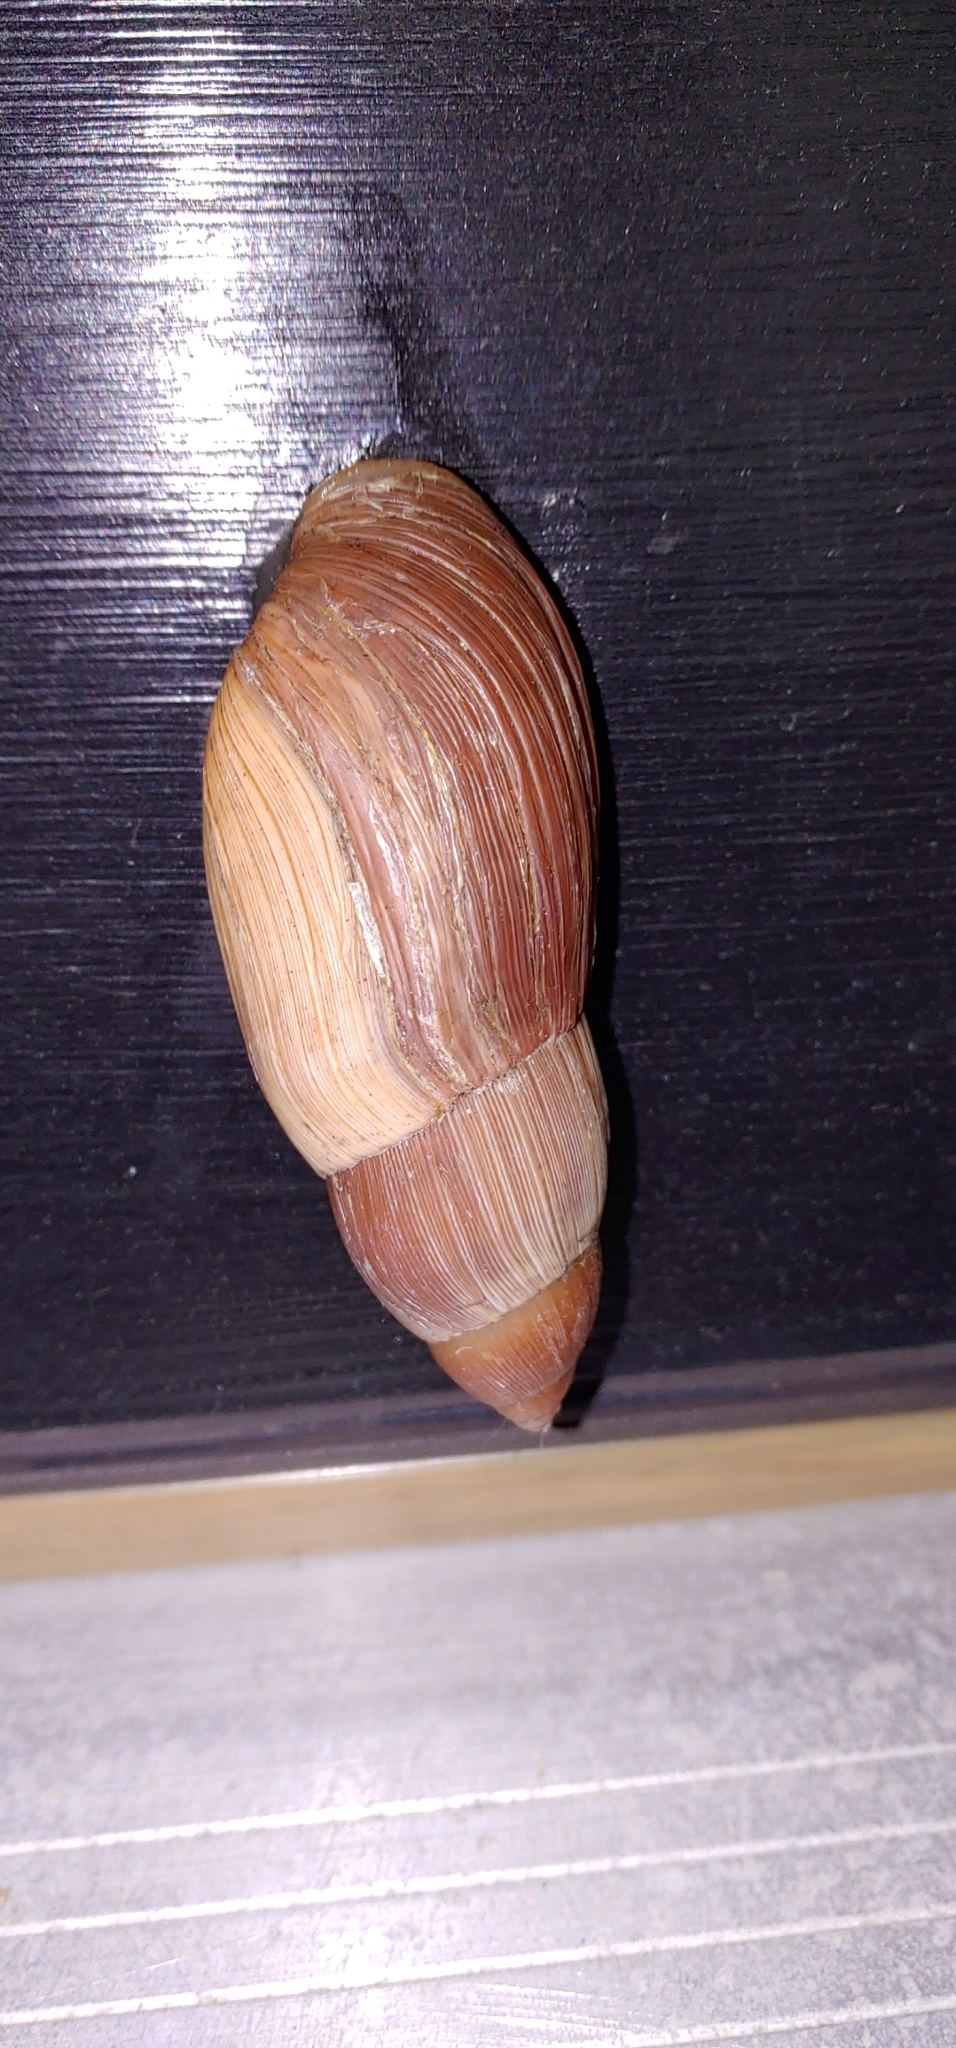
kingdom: Animalia
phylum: Mollusca
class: Gastropoda
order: Stylommatophora
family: Spiraxidae
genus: Euglandina
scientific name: Euglandina rosea
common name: Rosy wolfsnail
